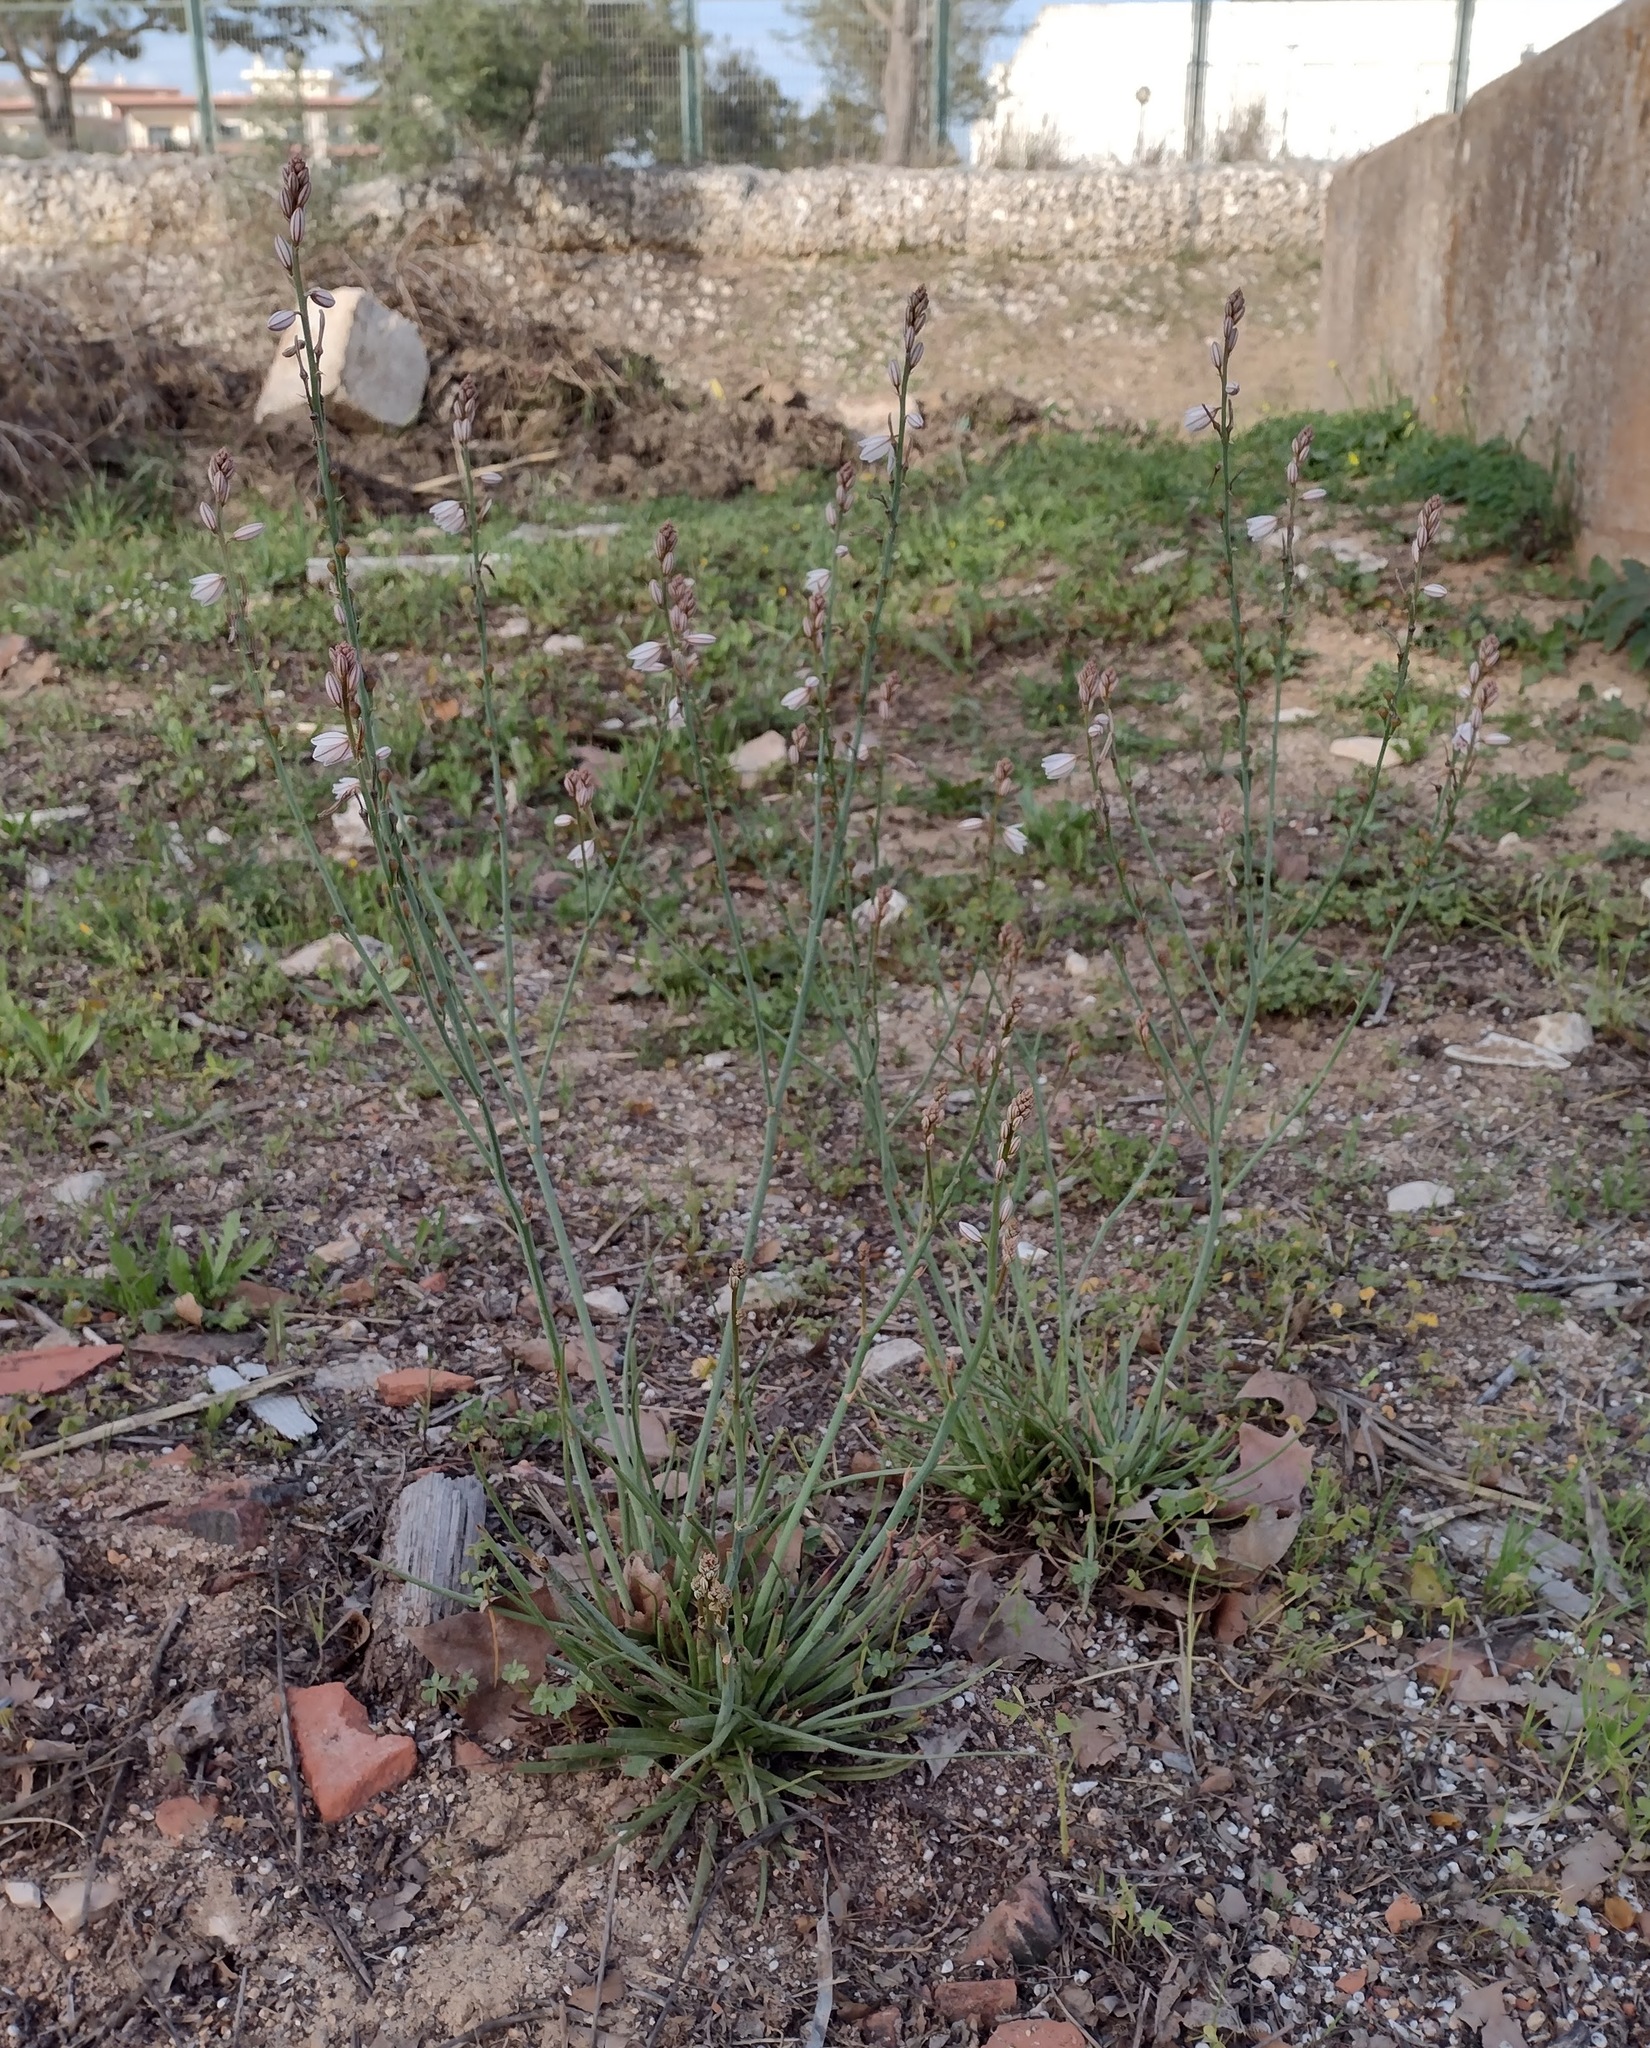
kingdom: Plantae
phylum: Tracheophyta
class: Liliopsida
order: Asparagales
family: Asphodelaceae
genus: Asphodelus
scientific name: Asphodelus fistulosus
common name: Onionweed
